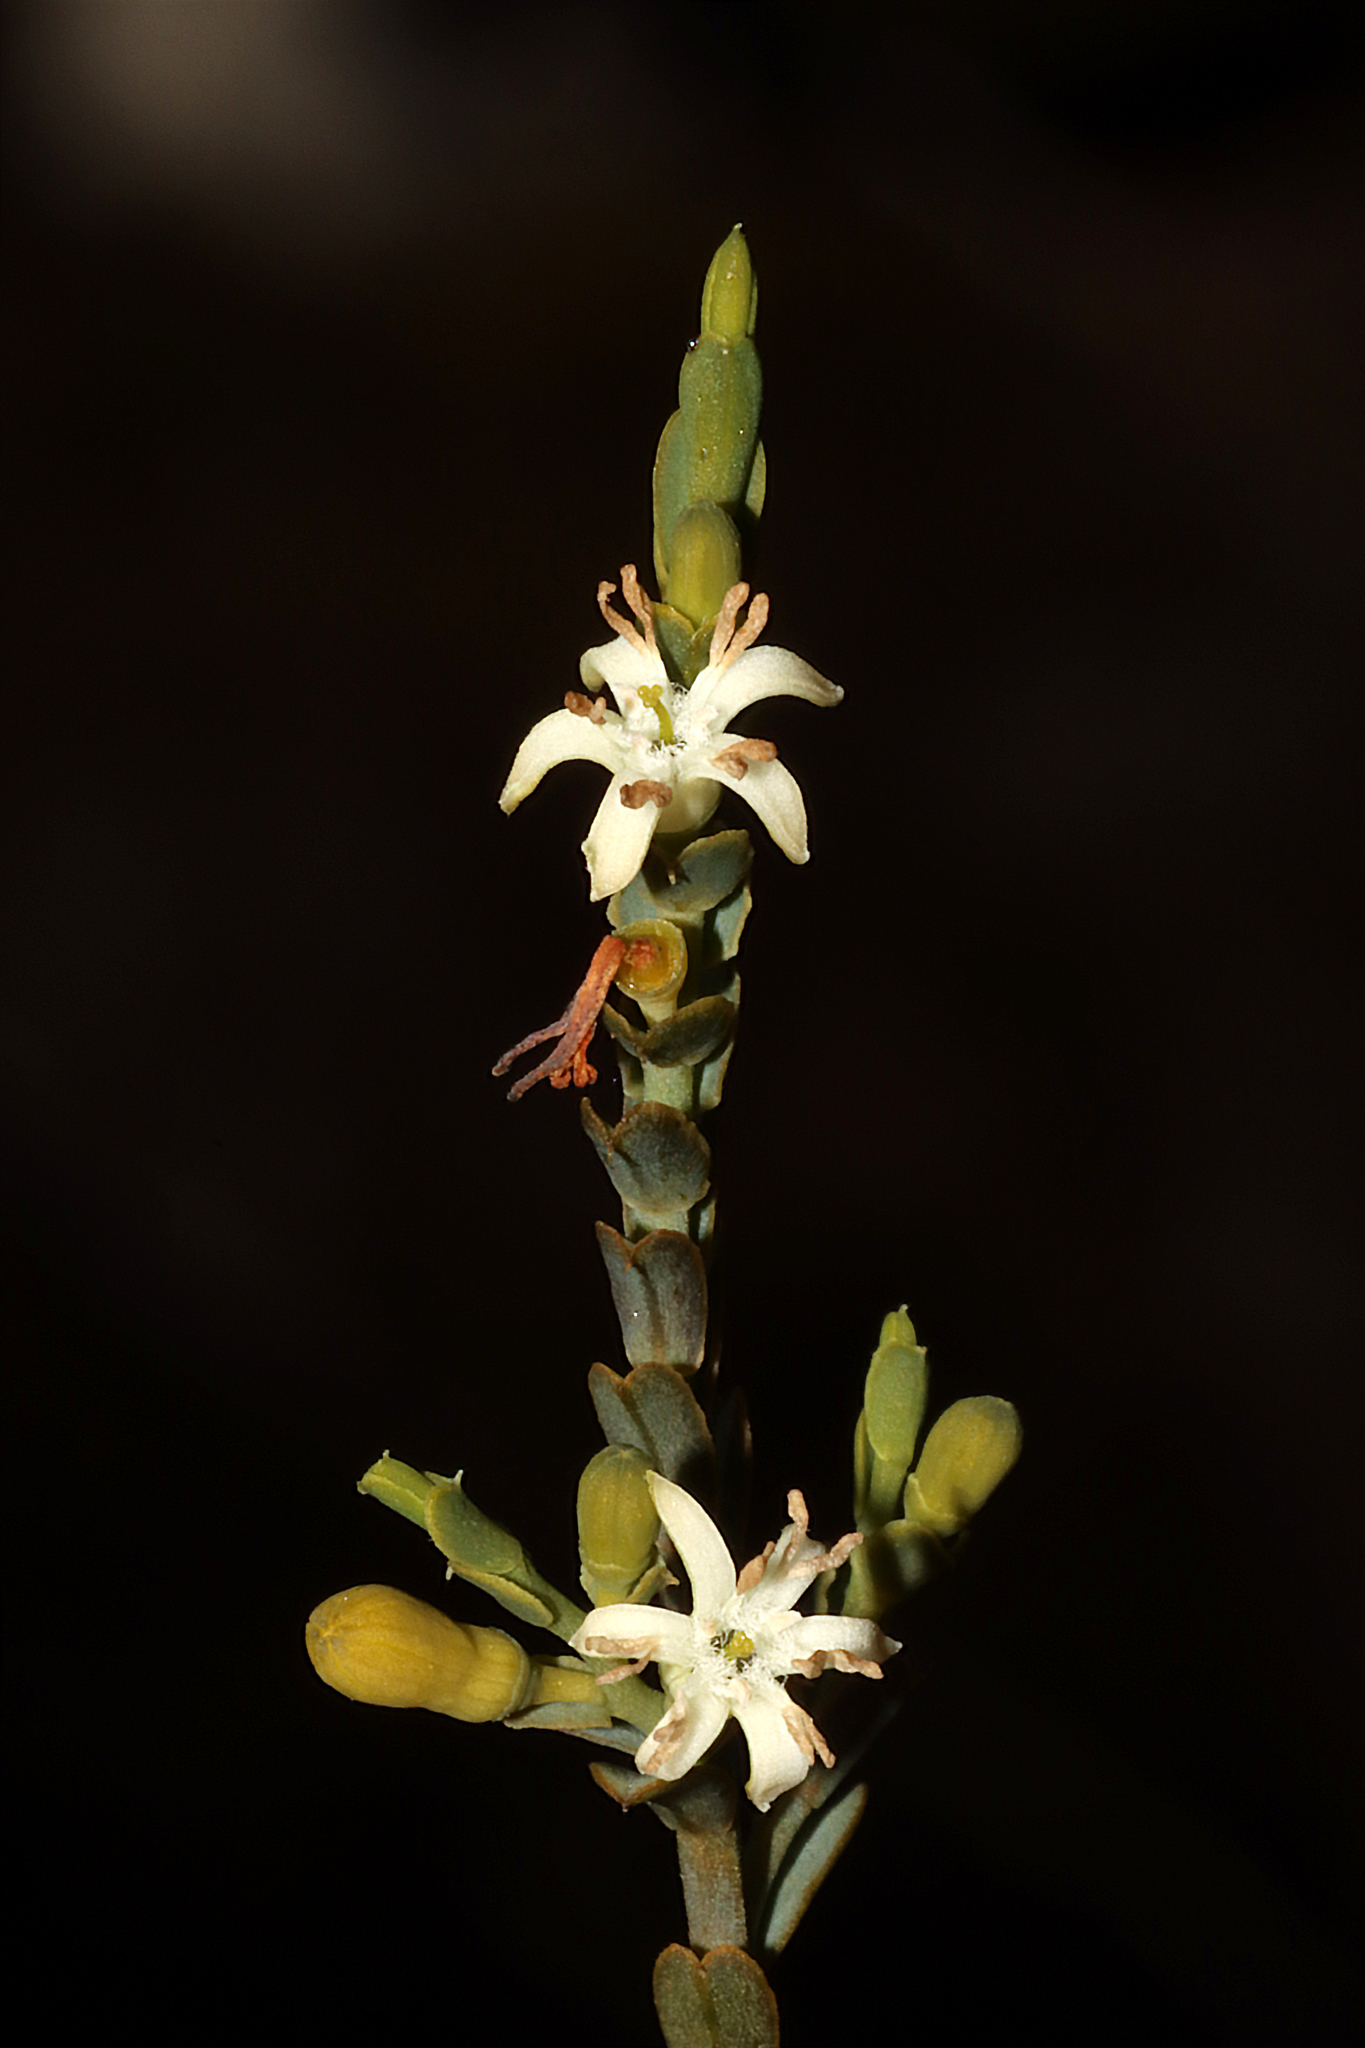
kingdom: Plantae
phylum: Tracheophyta
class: Magnoliopsida
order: Santalales
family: Olacaceae
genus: Olax
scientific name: Olax benthamiana
